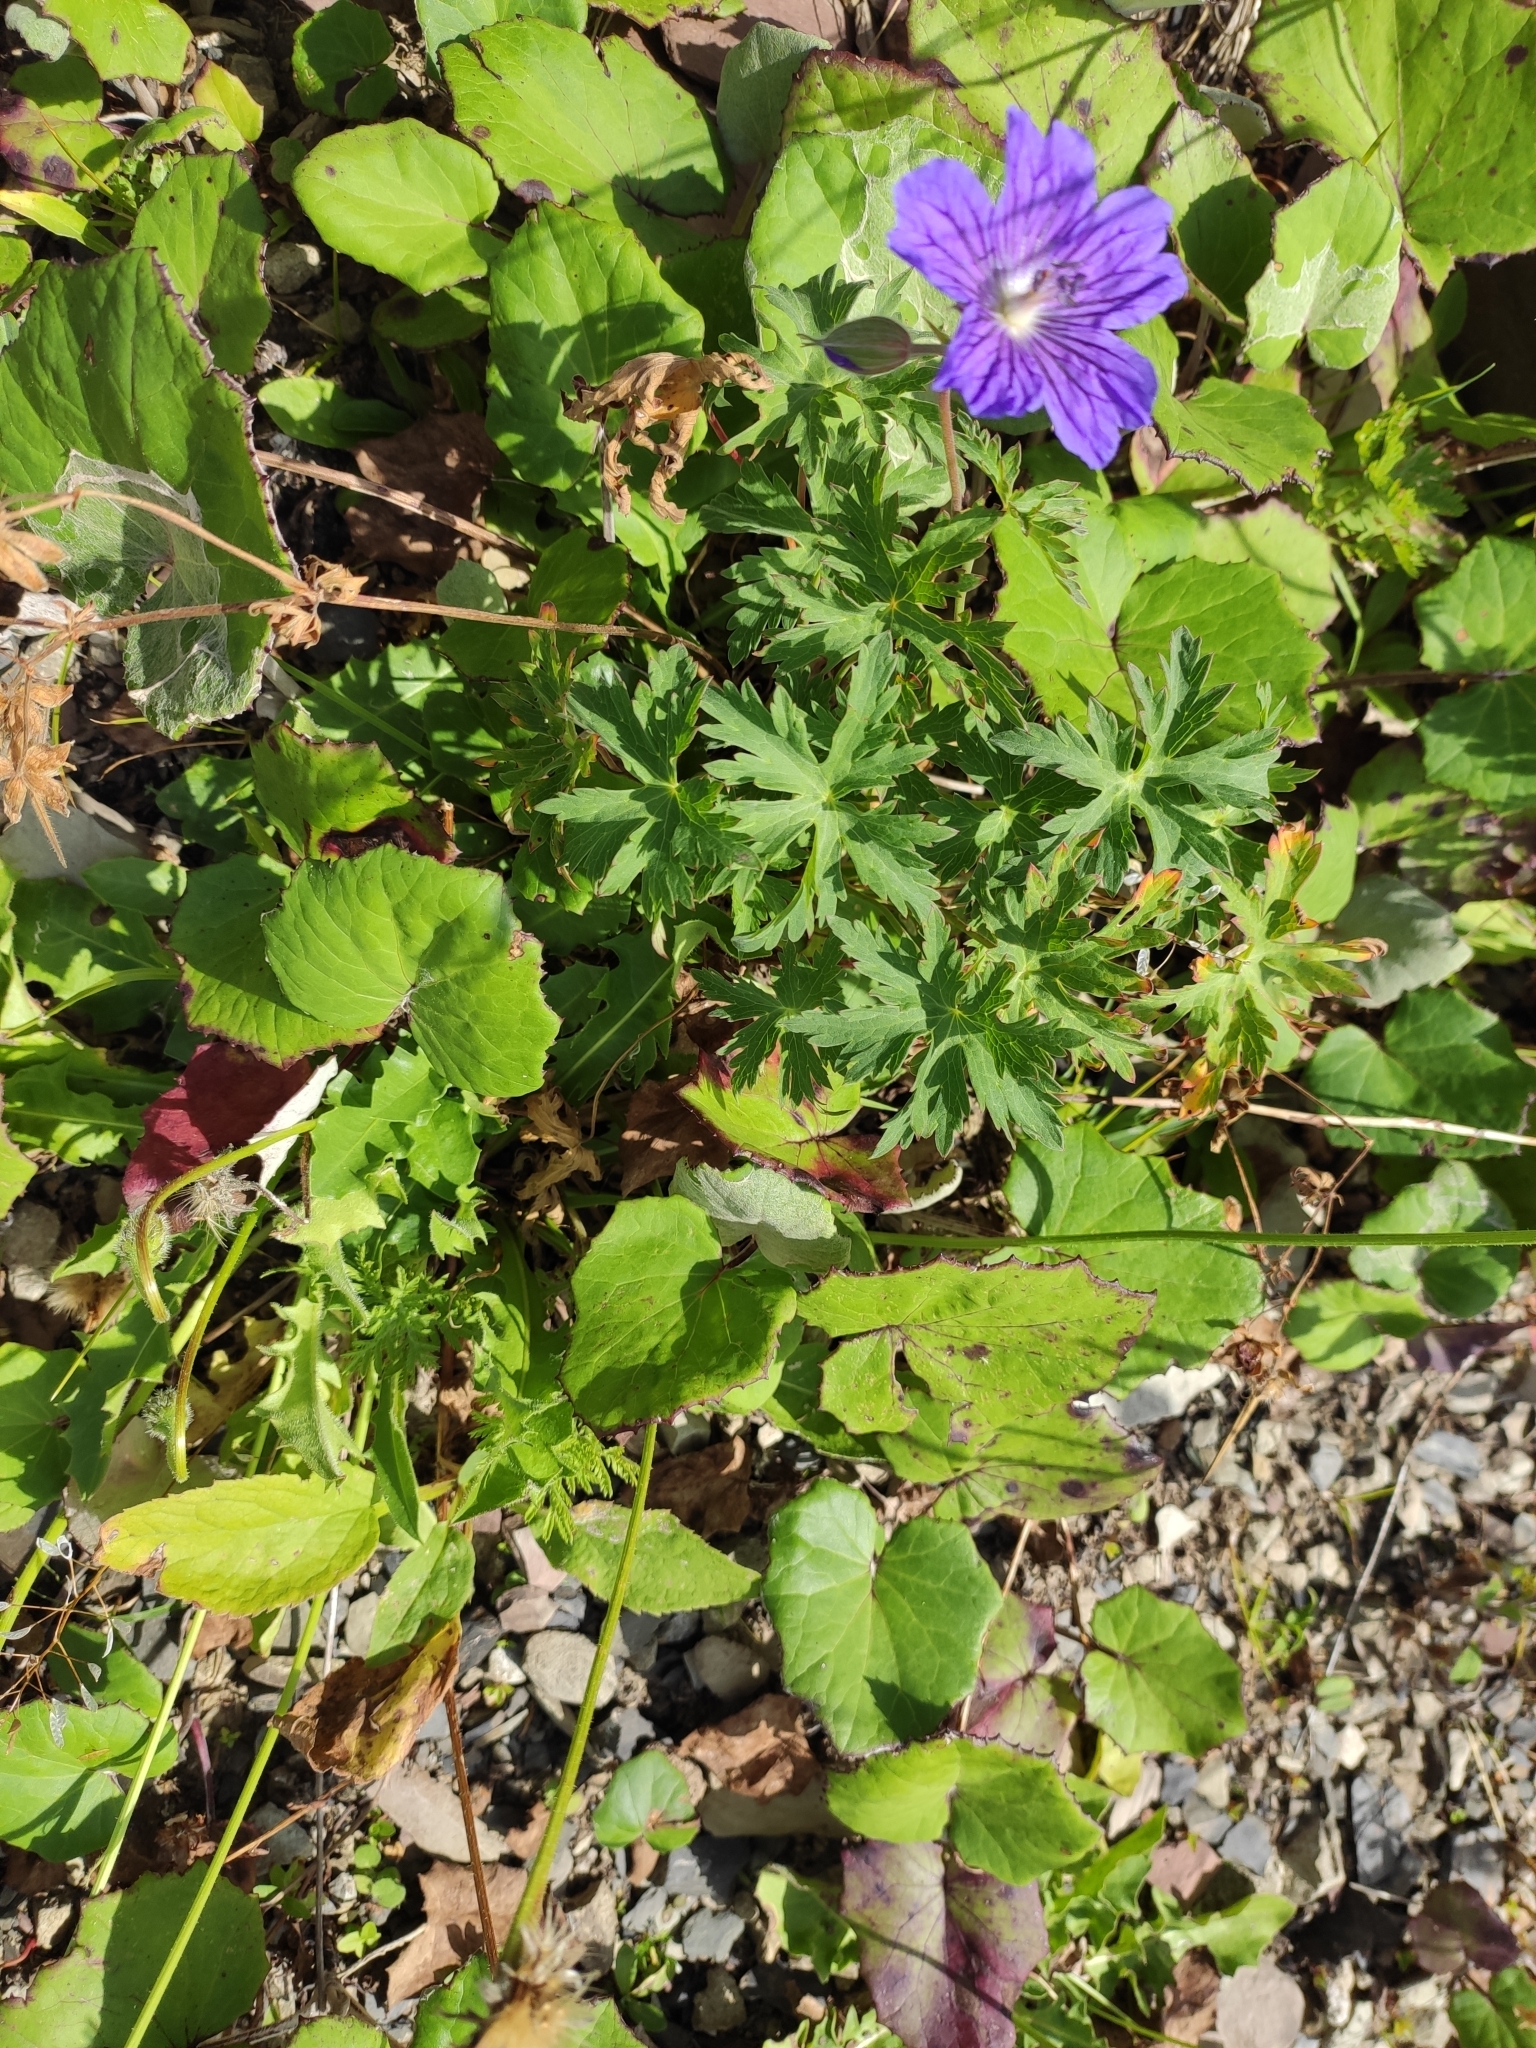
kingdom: Plantae
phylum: Tracheophyta
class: Magnoliopsida
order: Geraniales
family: Geraniaceae
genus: Geranium
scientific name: Geranium gymnocaulon
